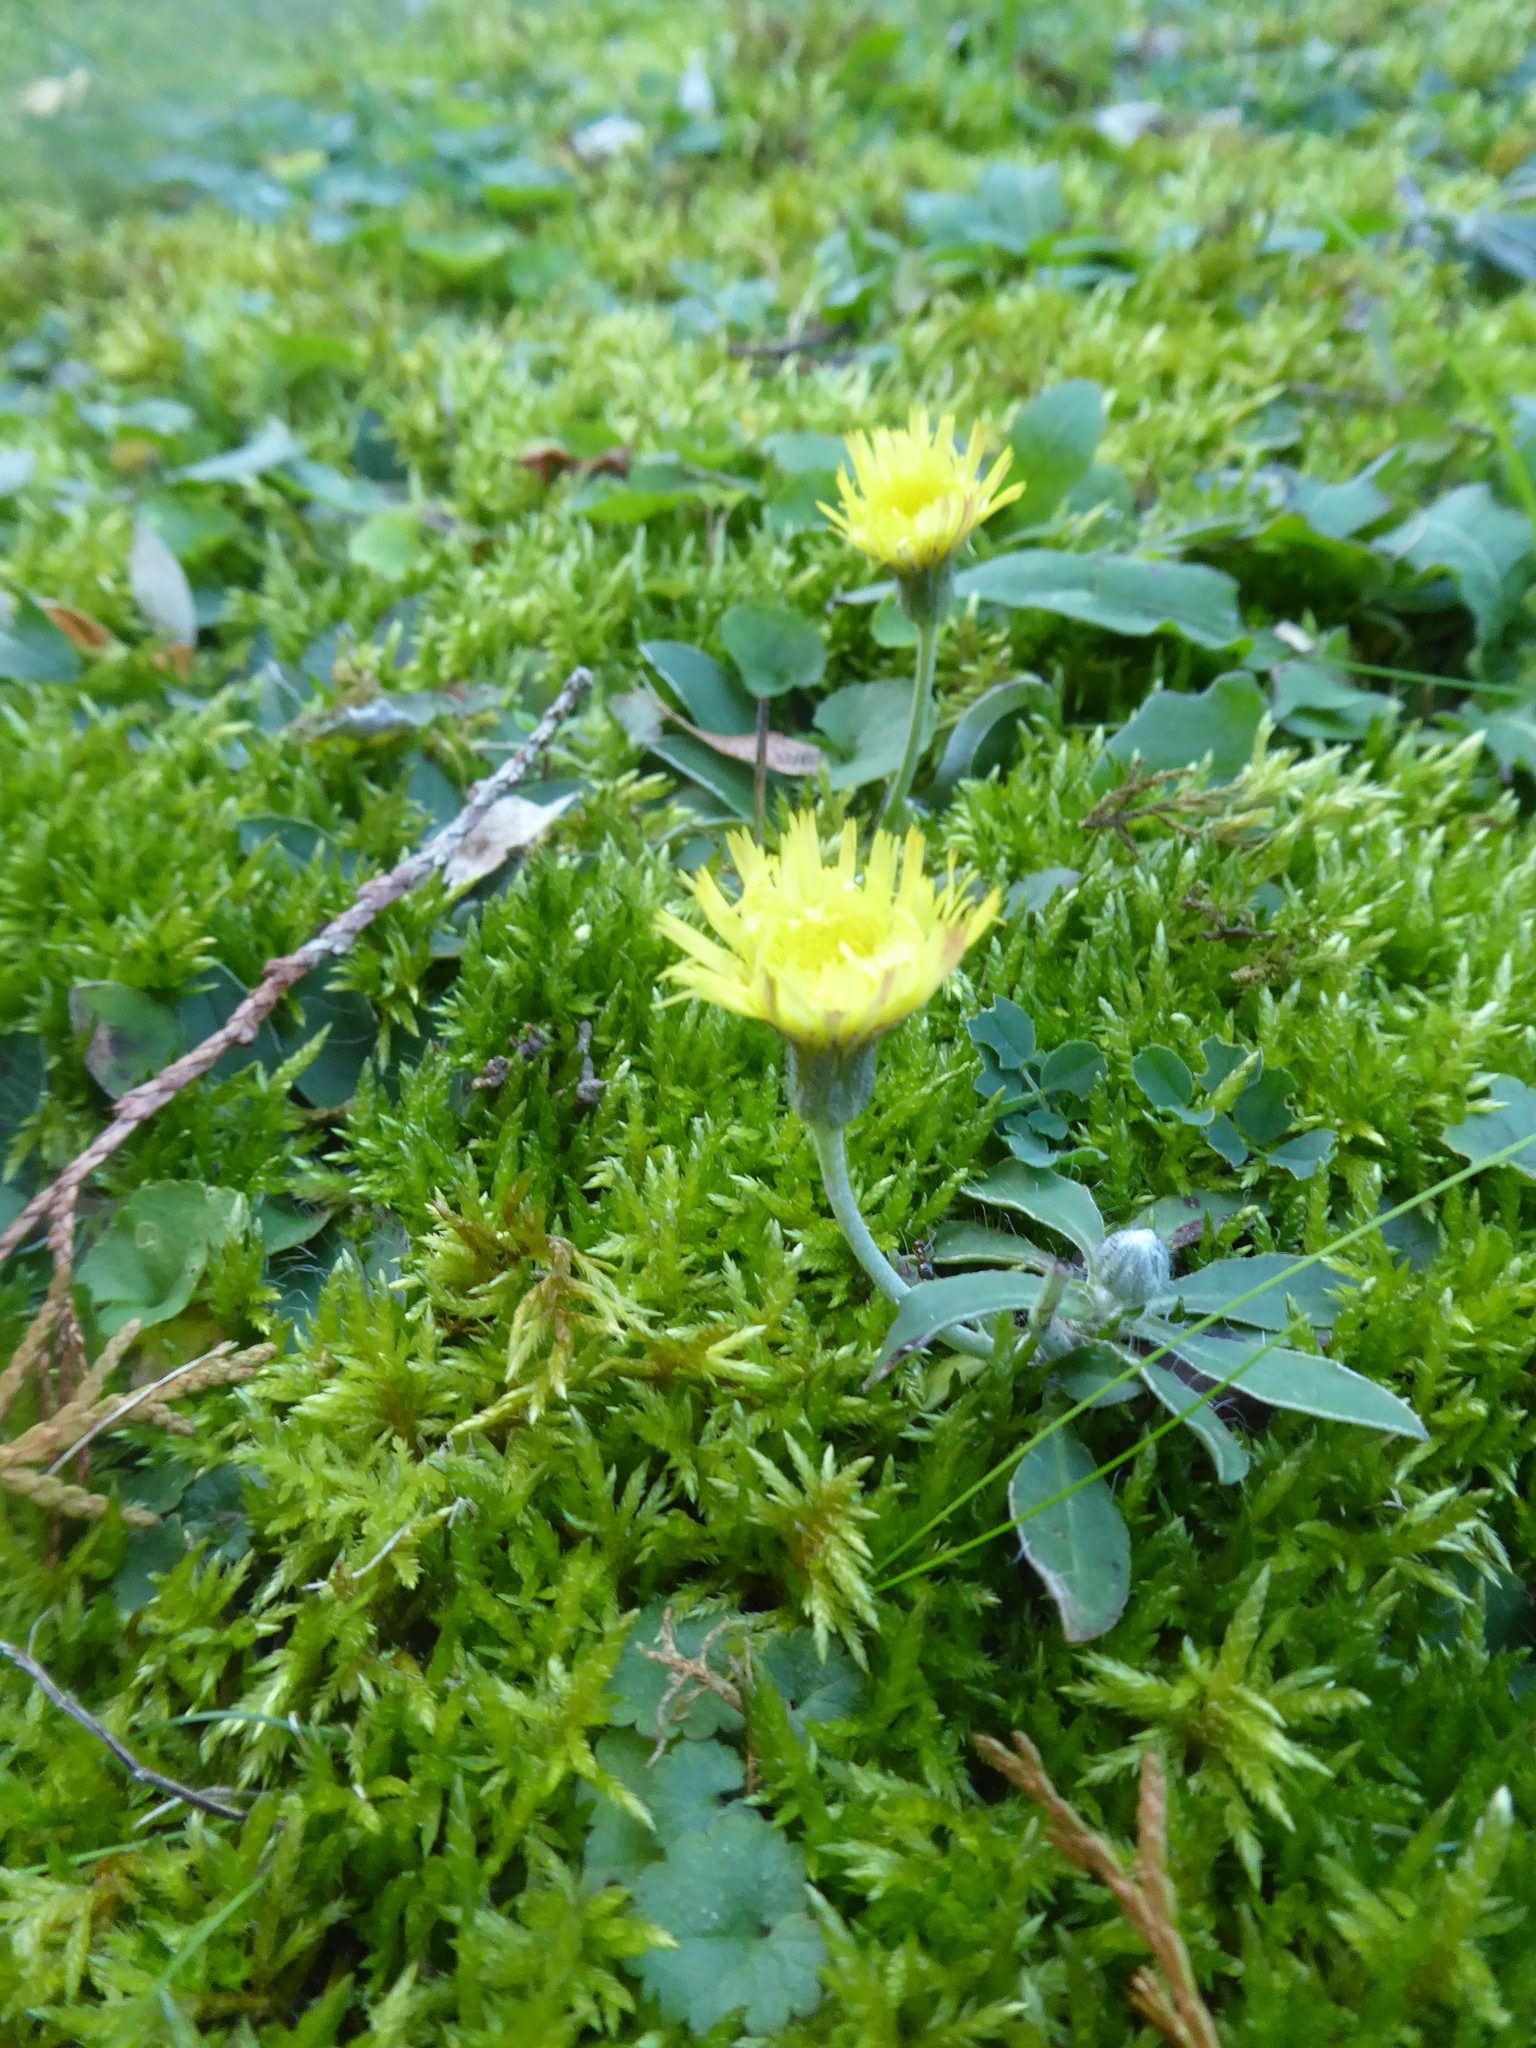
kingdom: Plantae
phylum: Tracheophyta
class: Magnoliopsida
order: Asterales
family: Asteraceae
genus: Pilosella
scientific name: Pilosella officinarum
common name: Mouse-ear hawkweed
